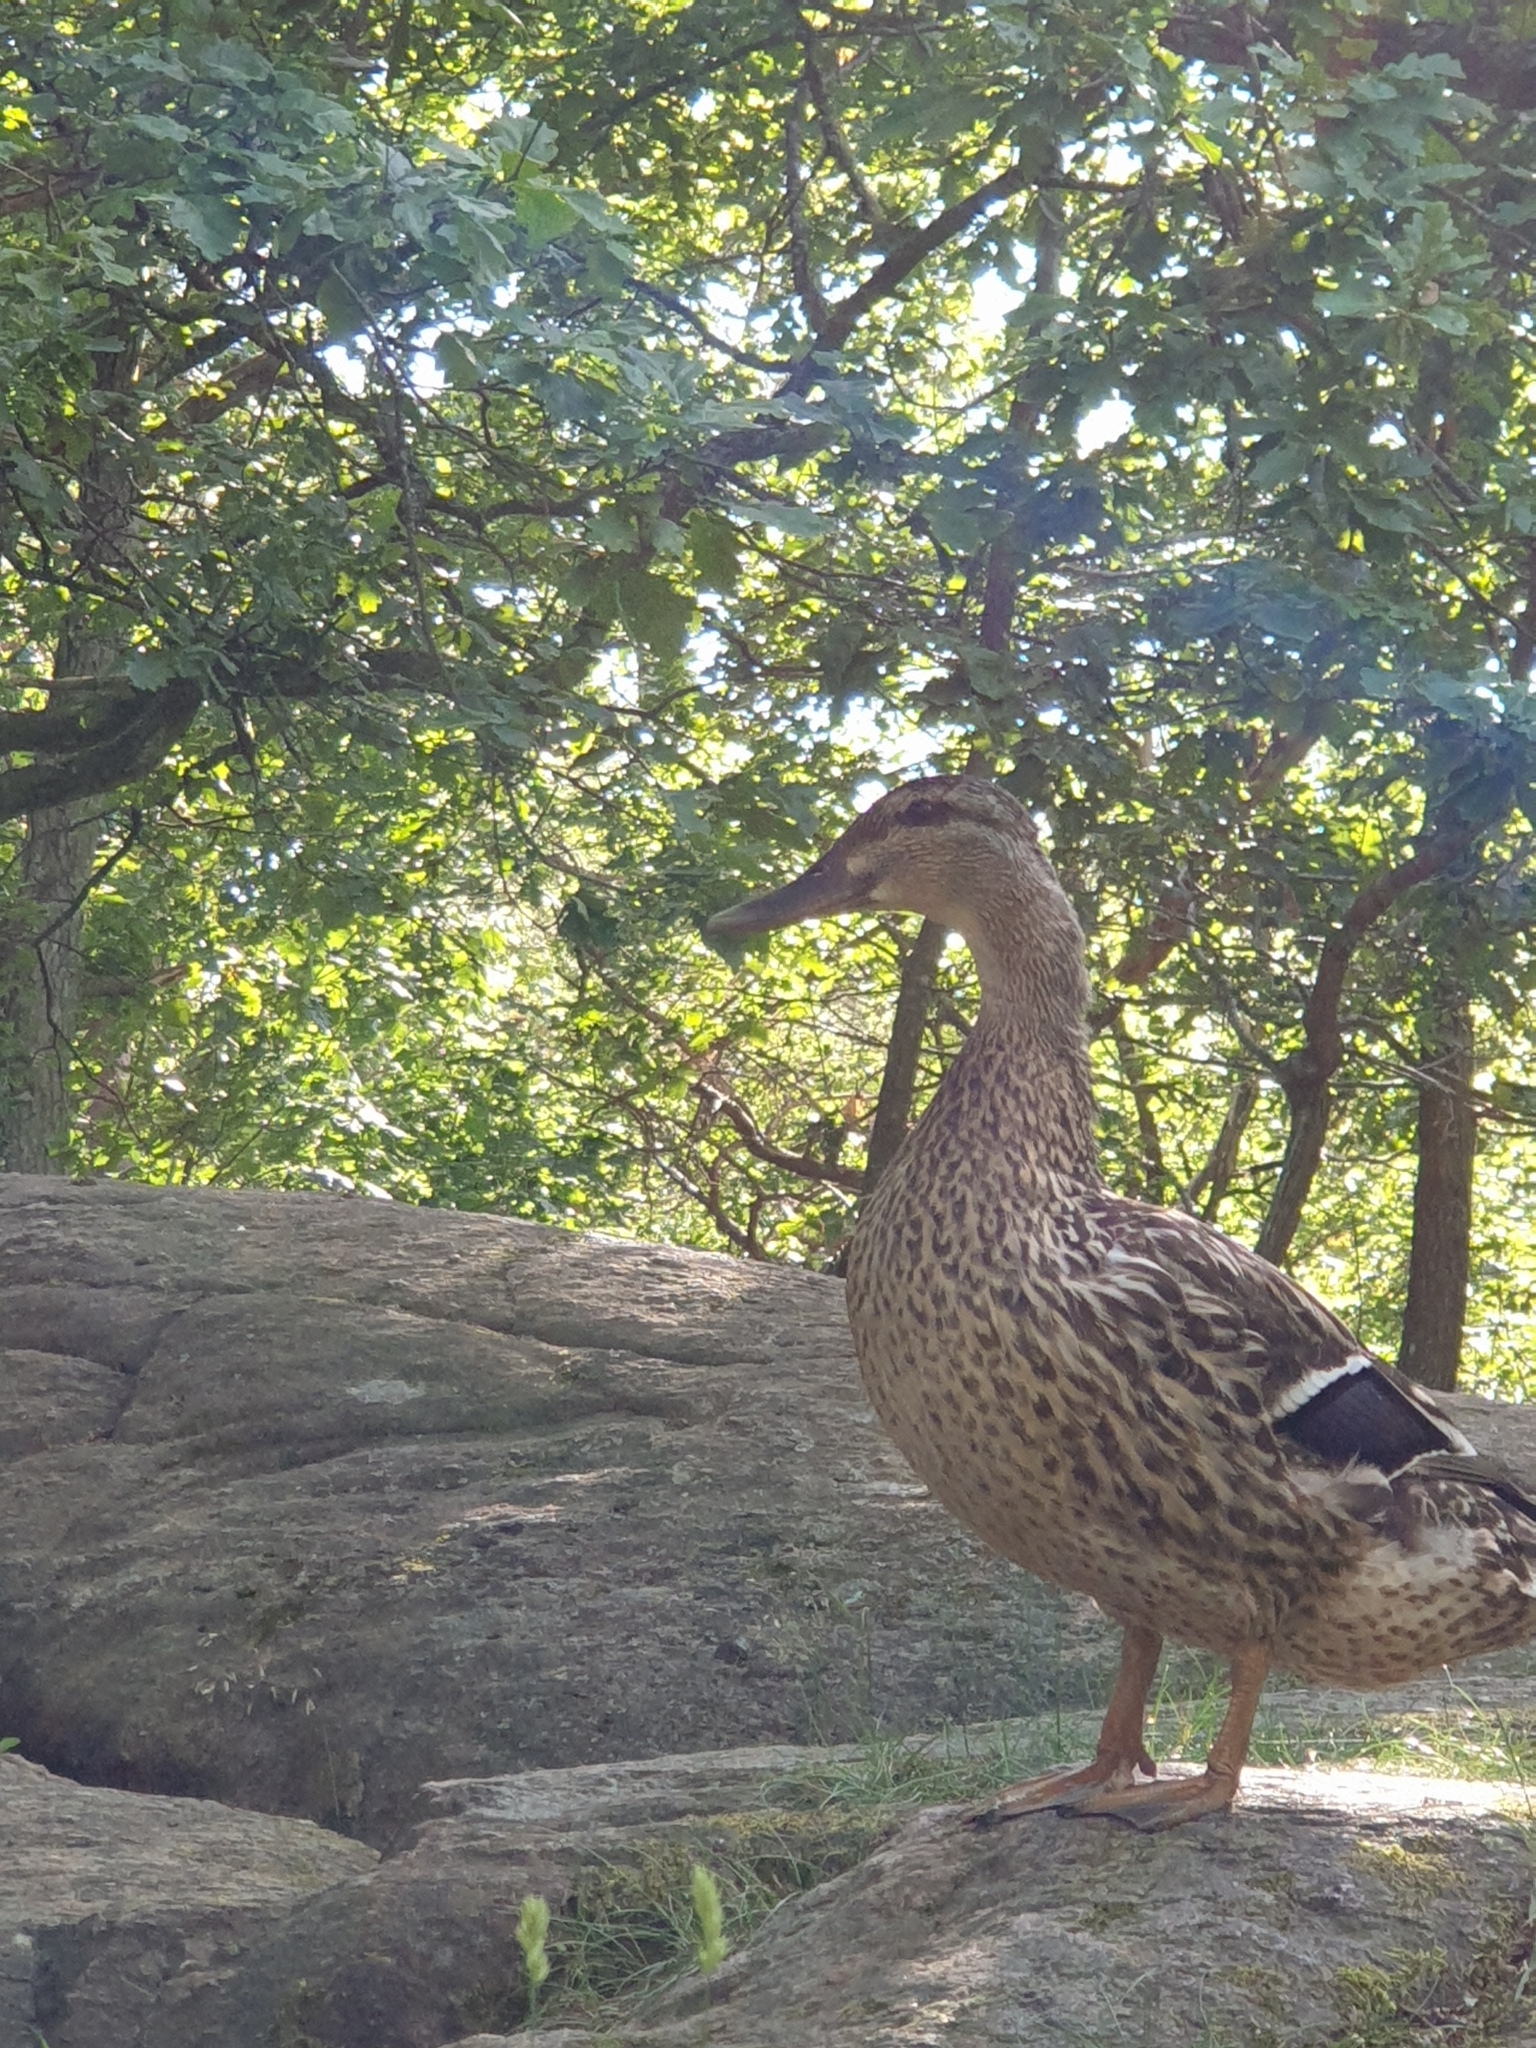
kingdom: Animalia
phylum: Chordata
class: Aves
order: Anseriformes
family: Anatidae
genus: Anas
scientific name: Anas platyrhynchos
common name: Mallard
